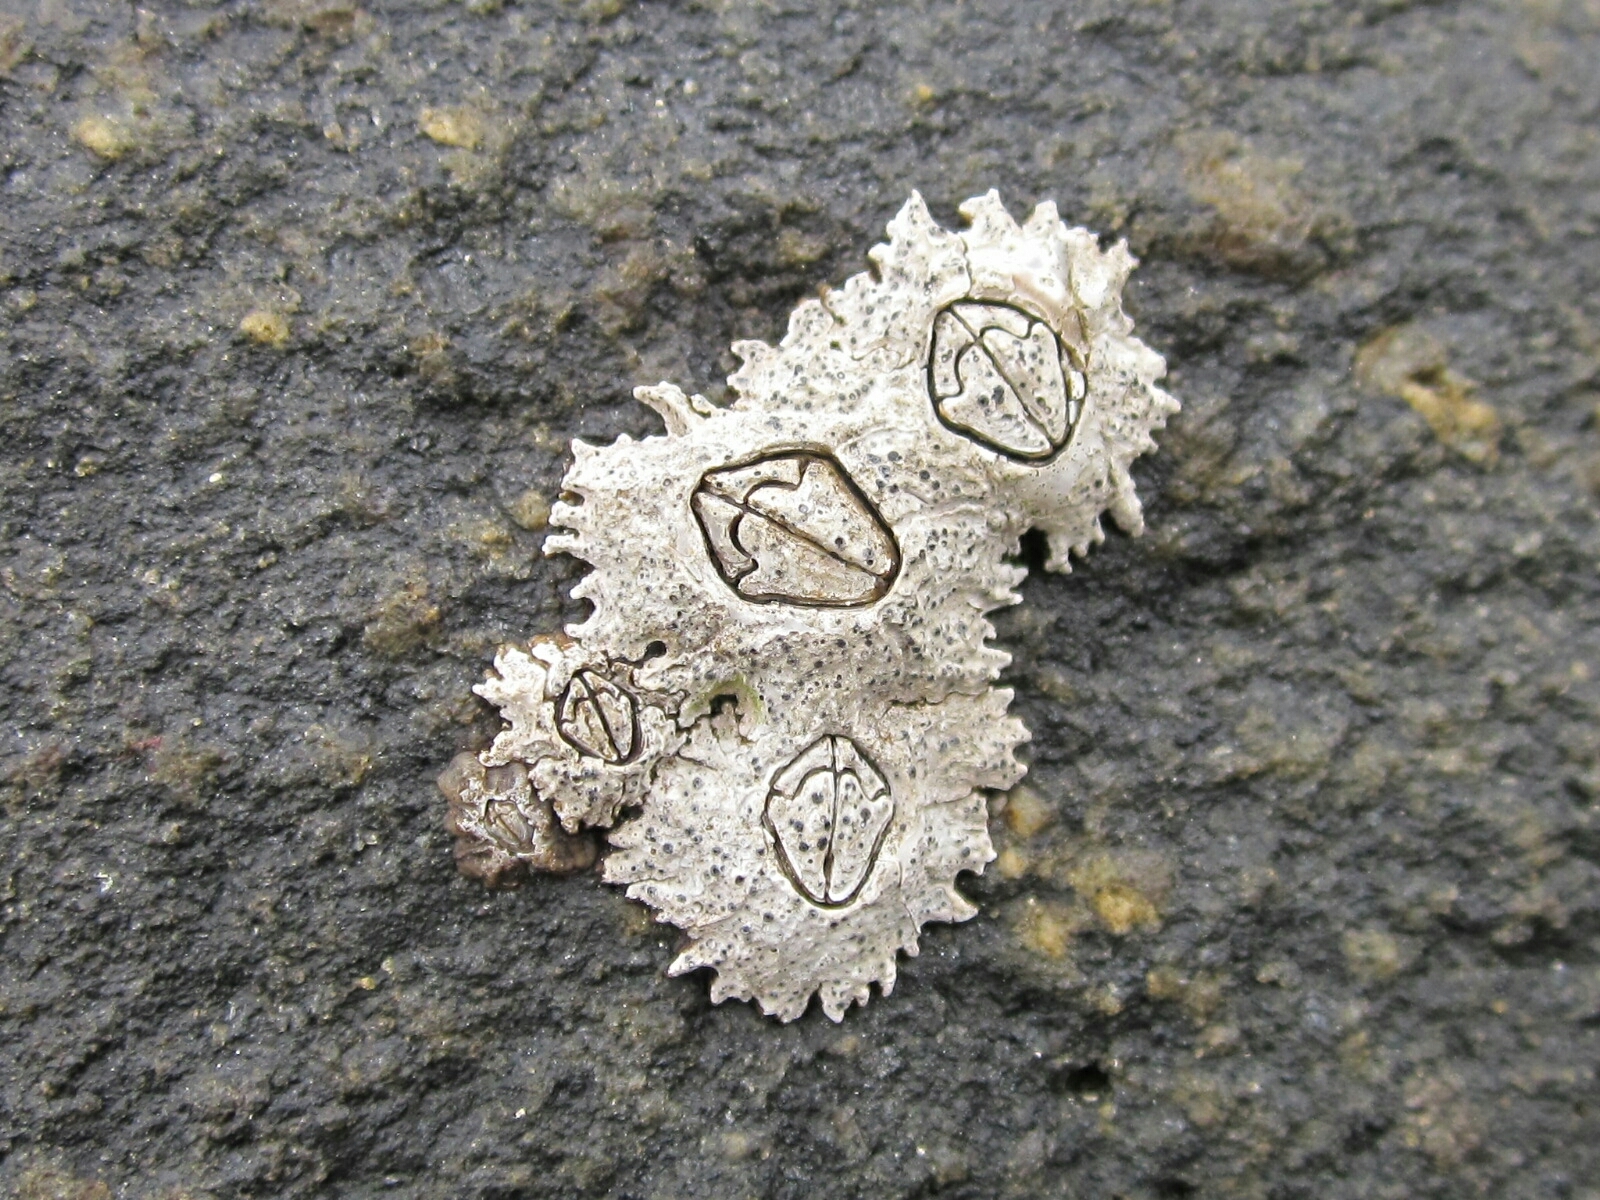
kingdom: Animalia
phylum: Arthropoda
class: Maxillopoda
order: Sessilia
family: Chthamalidae
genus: Jehlius
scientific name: Jehlius cirratus
